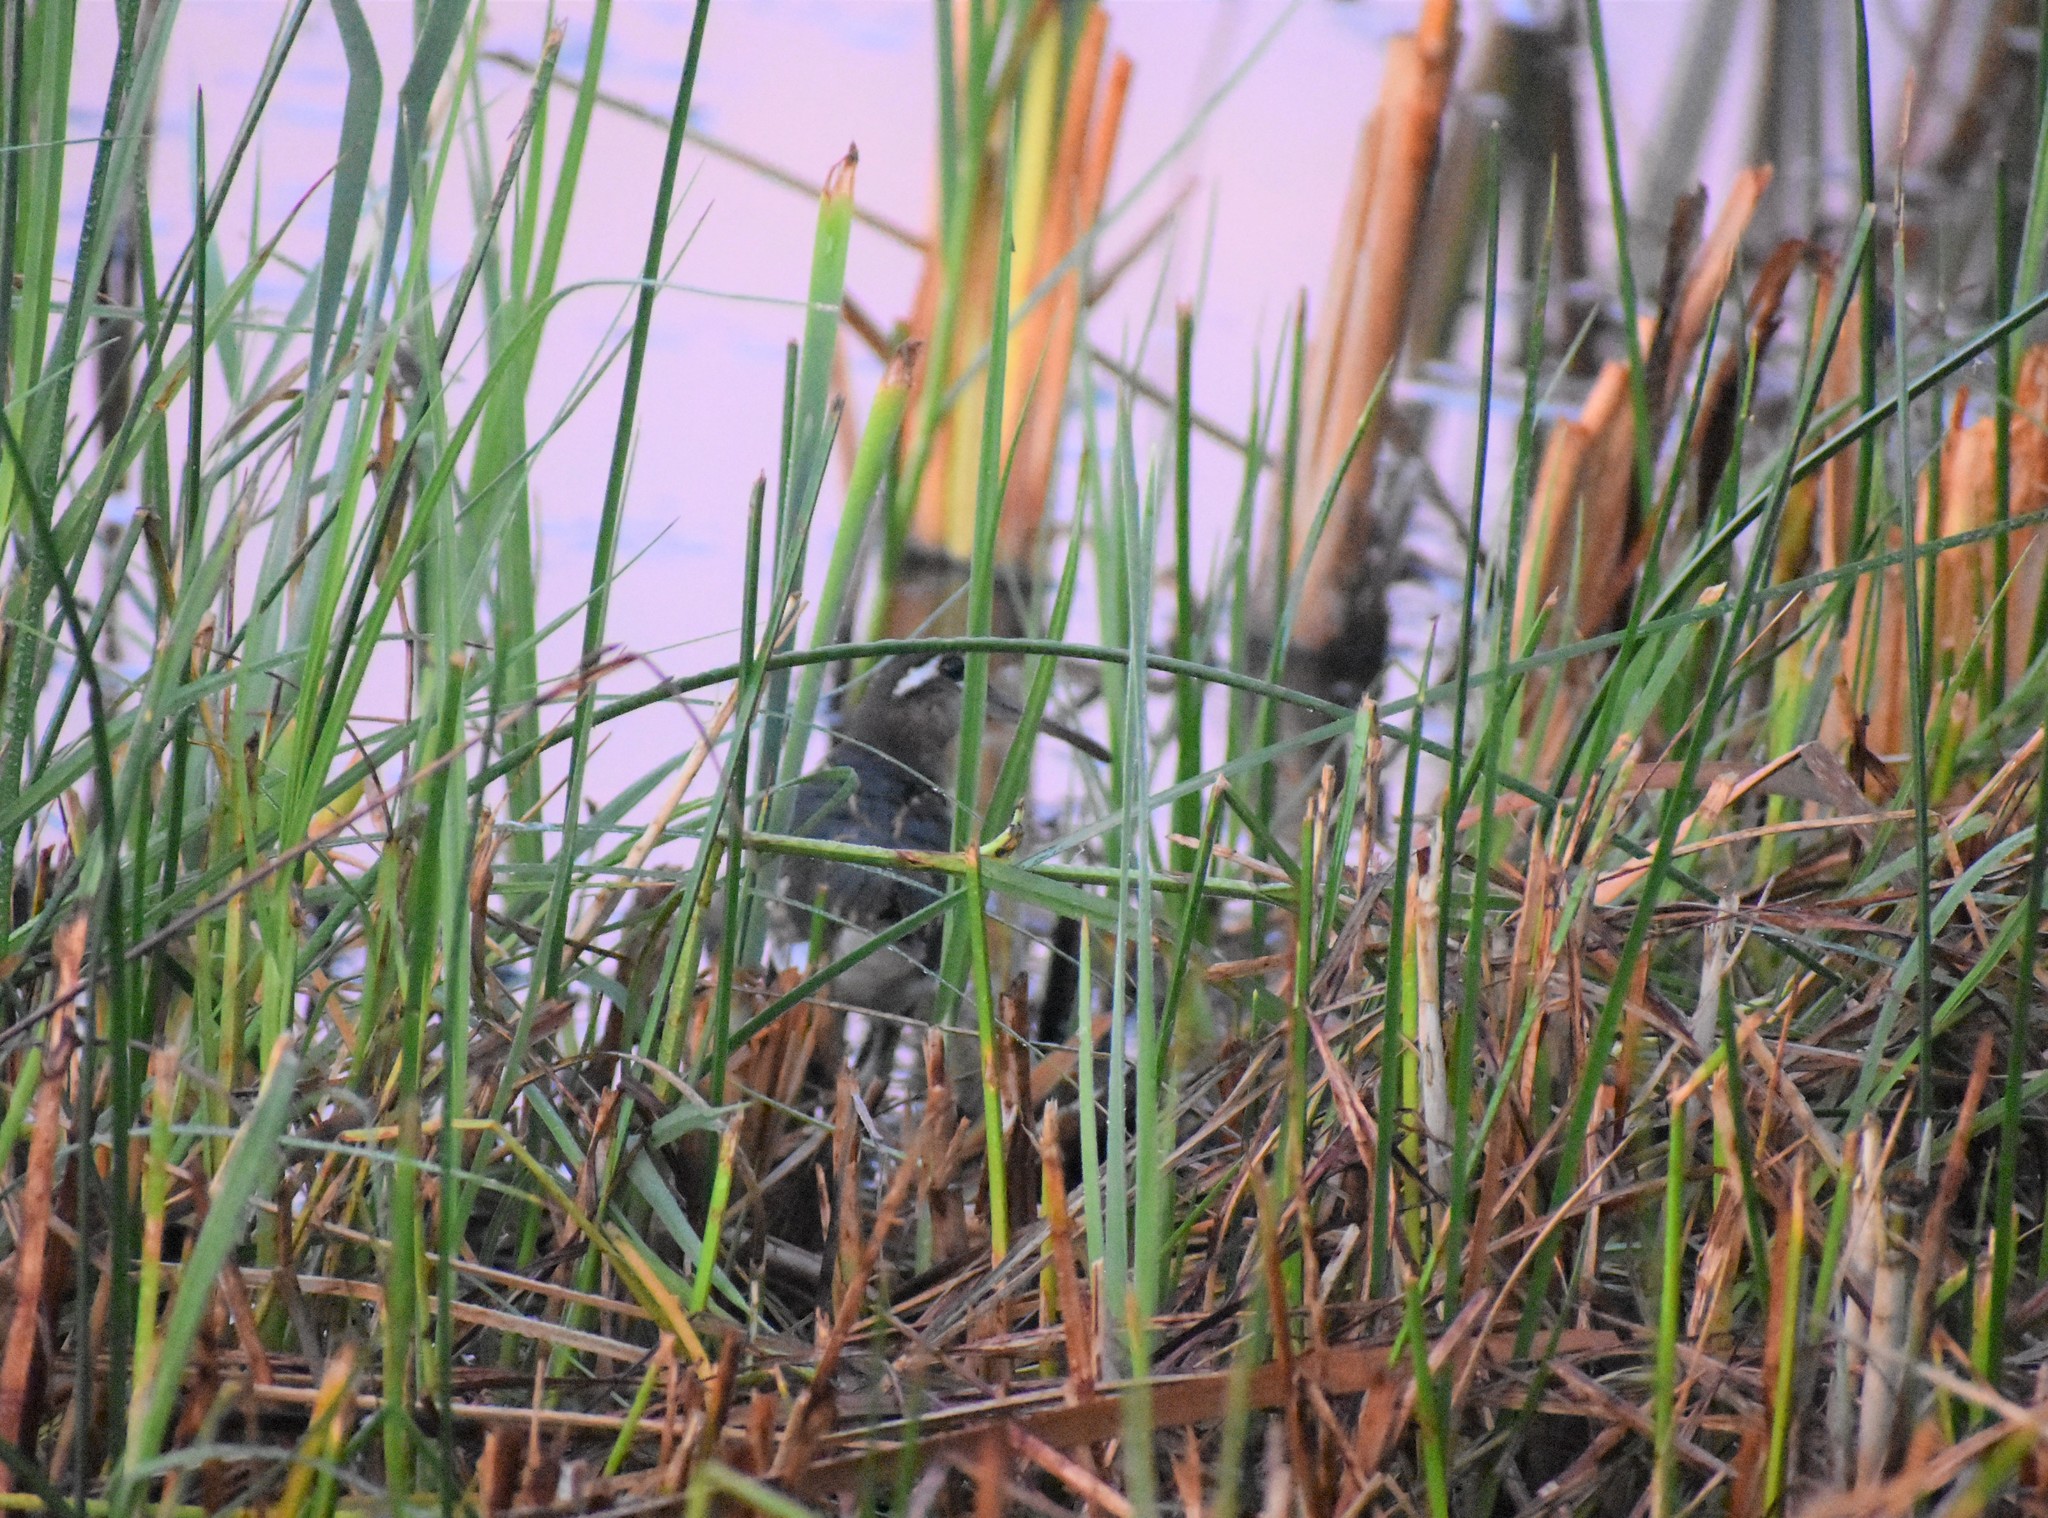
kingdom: Animalia
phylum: Chordata
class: Aves
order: Charadriiformes
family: Rostratulidae
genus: Rostratula
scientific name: Rostratula benghalensis
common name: Greater painted-snipe
